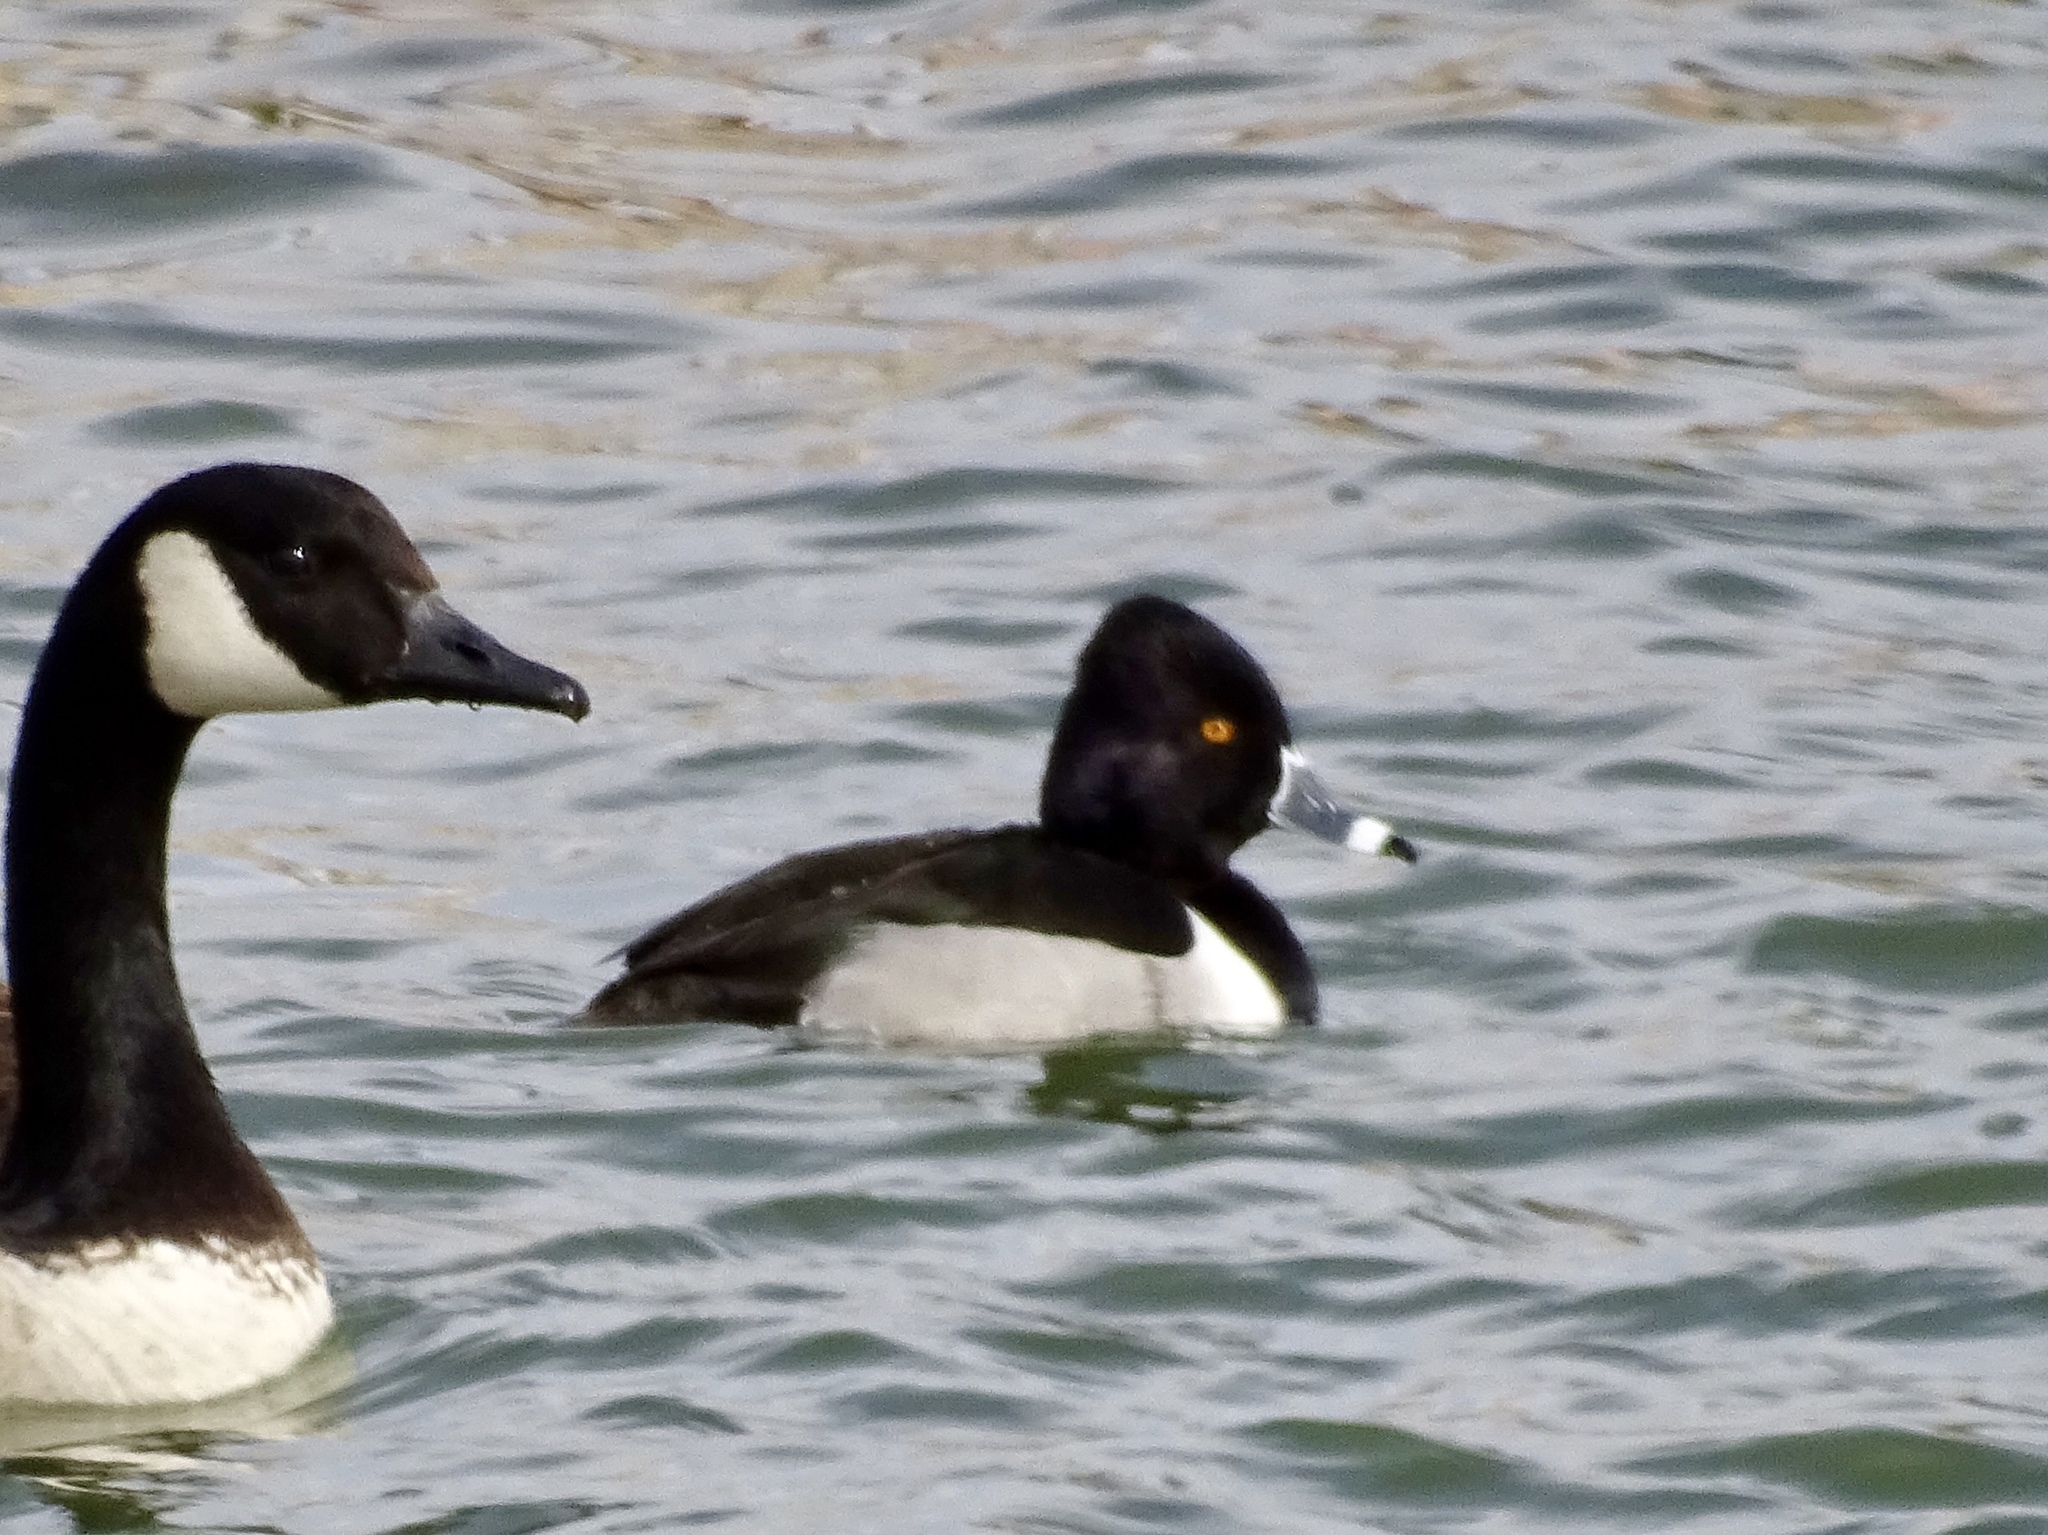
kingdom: Animalia
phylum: Chordata
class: Aves
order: Anseriformes
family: Anatidae
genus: Aythya
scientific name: Aythya collaris
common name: Ring-necked duck
